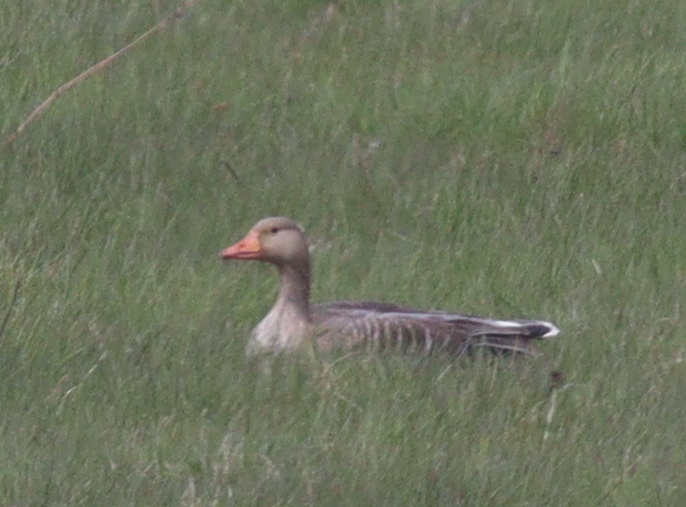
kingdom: Animalia
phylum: Chordata
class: Aves
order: Anseriformes
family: Anatidae
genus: Anser
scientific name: Anser anser
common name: Greylag goose
